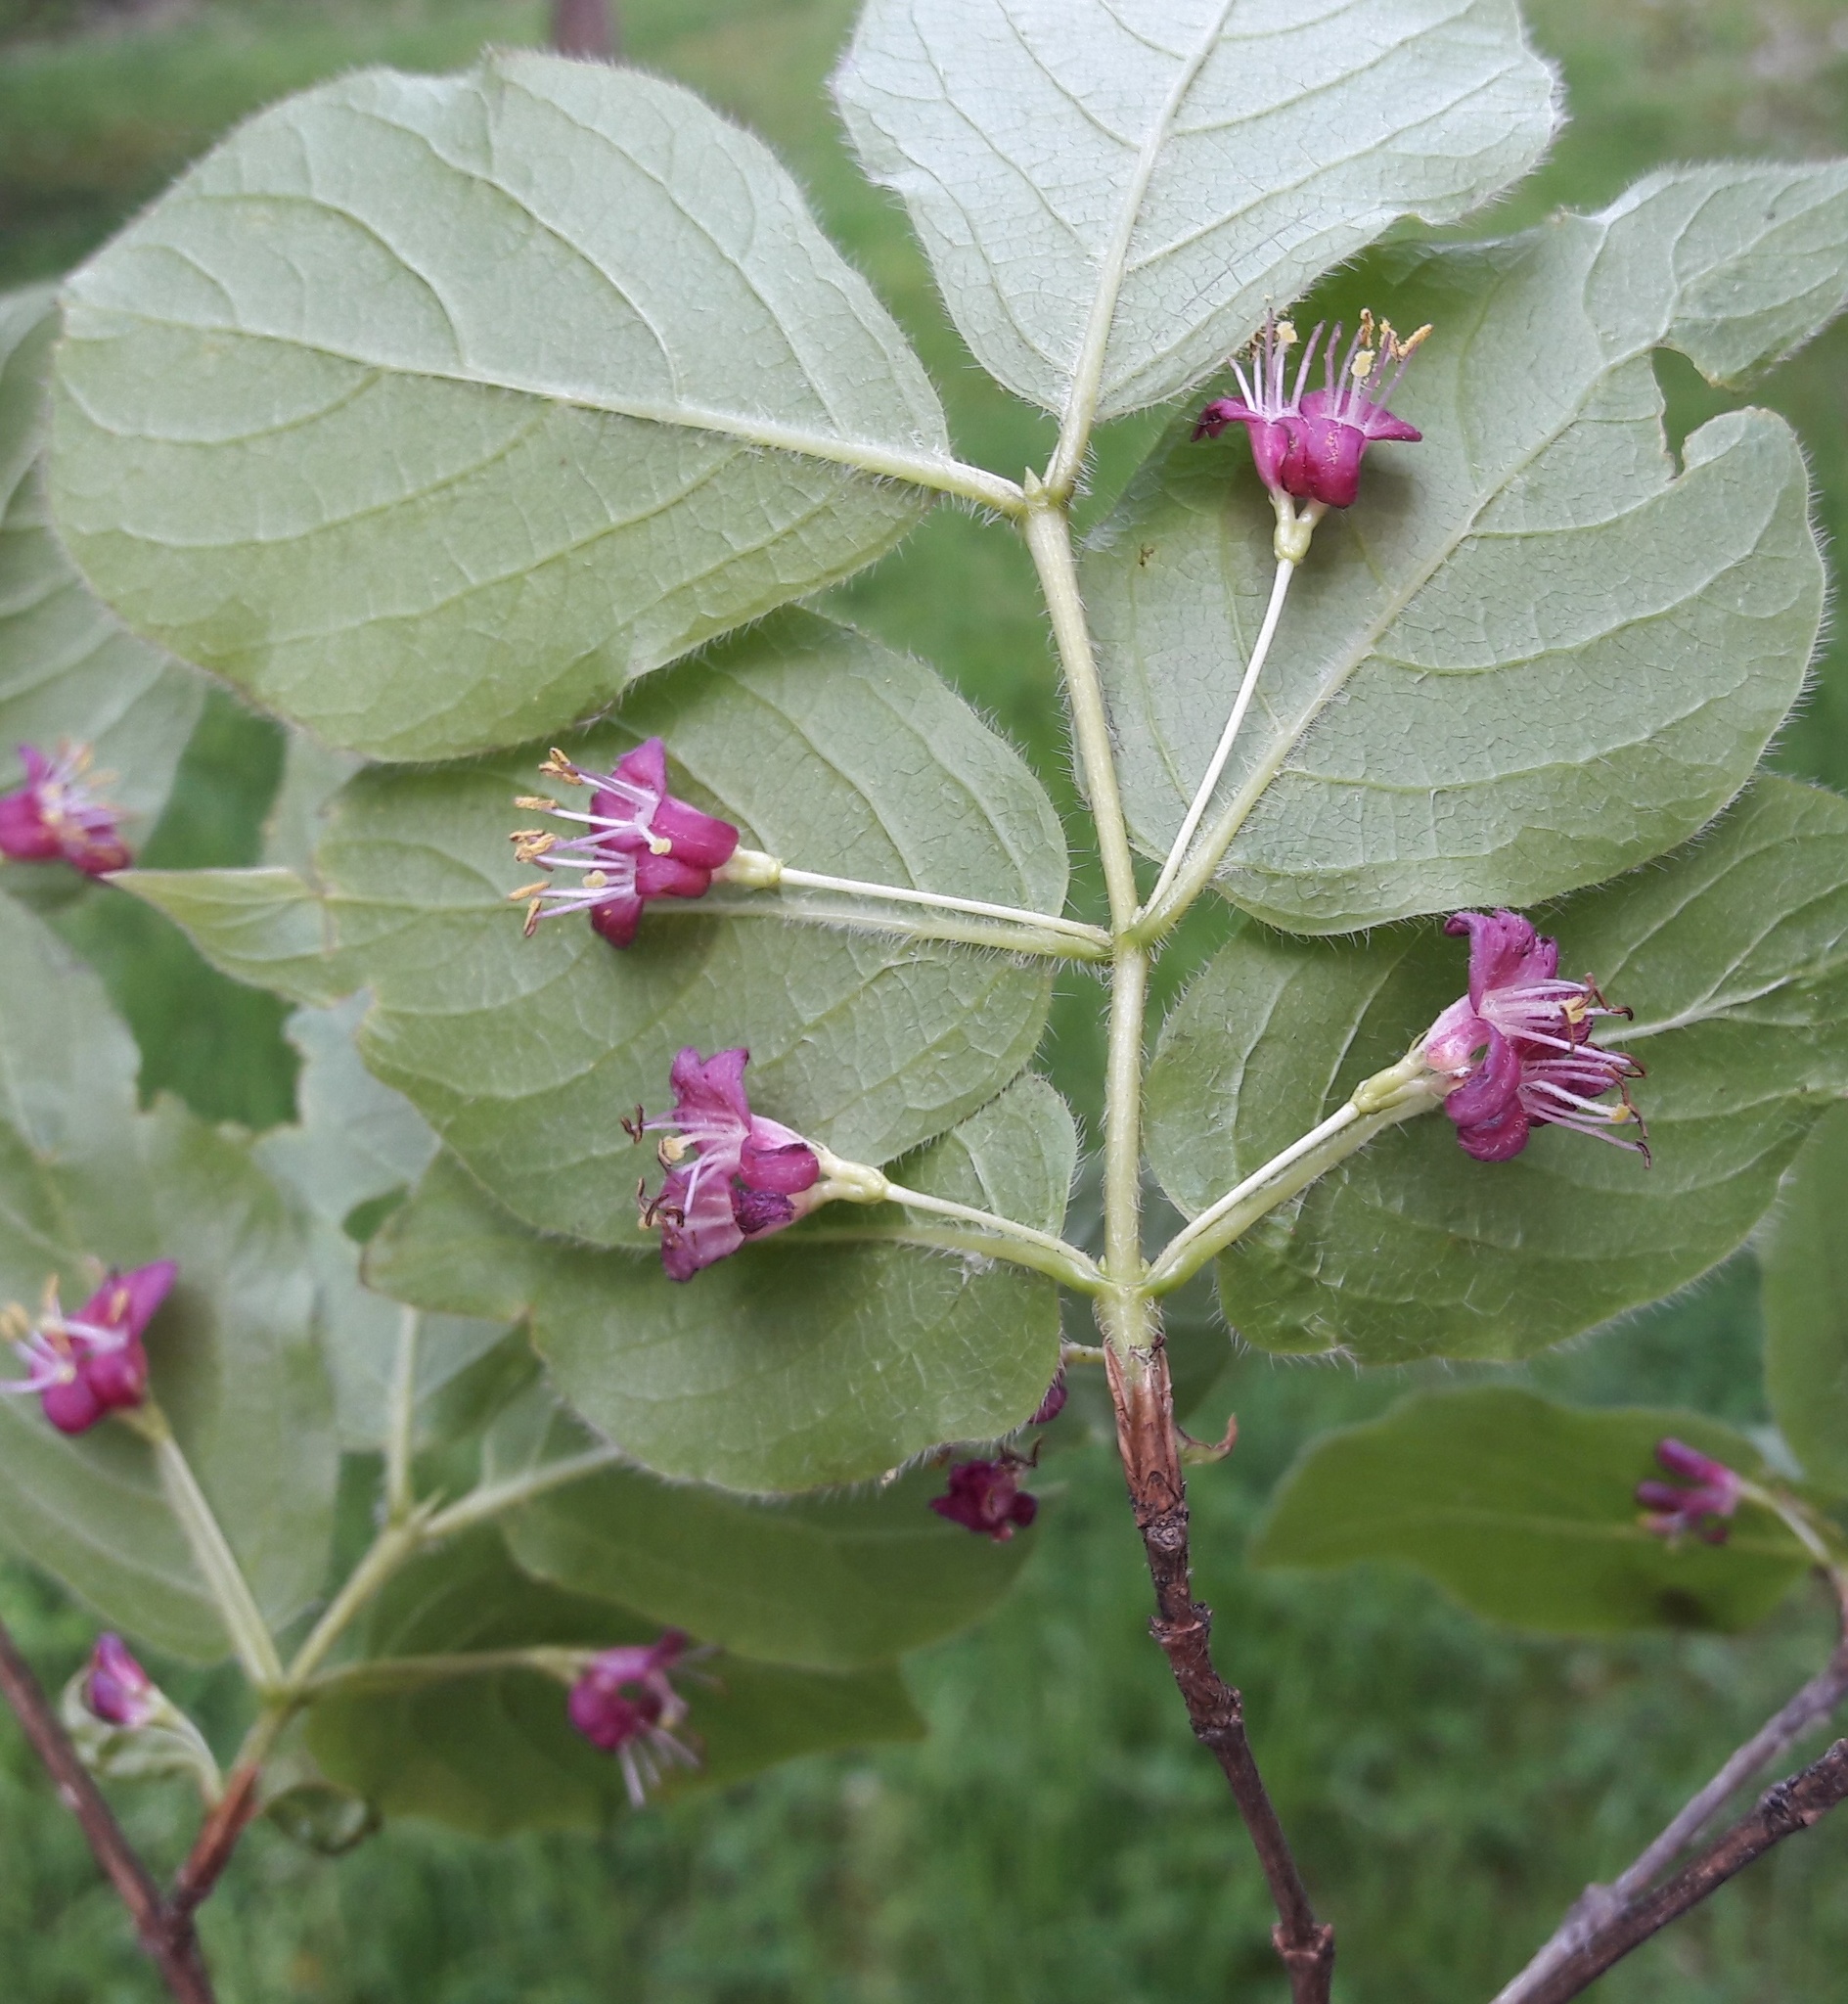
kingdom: Plantae
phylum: Tracheophyta
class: Magnoliopsida
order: Dipsacales
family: Caprifoliaceae
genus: Lonicera
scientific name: Lonicera maximowiczii
